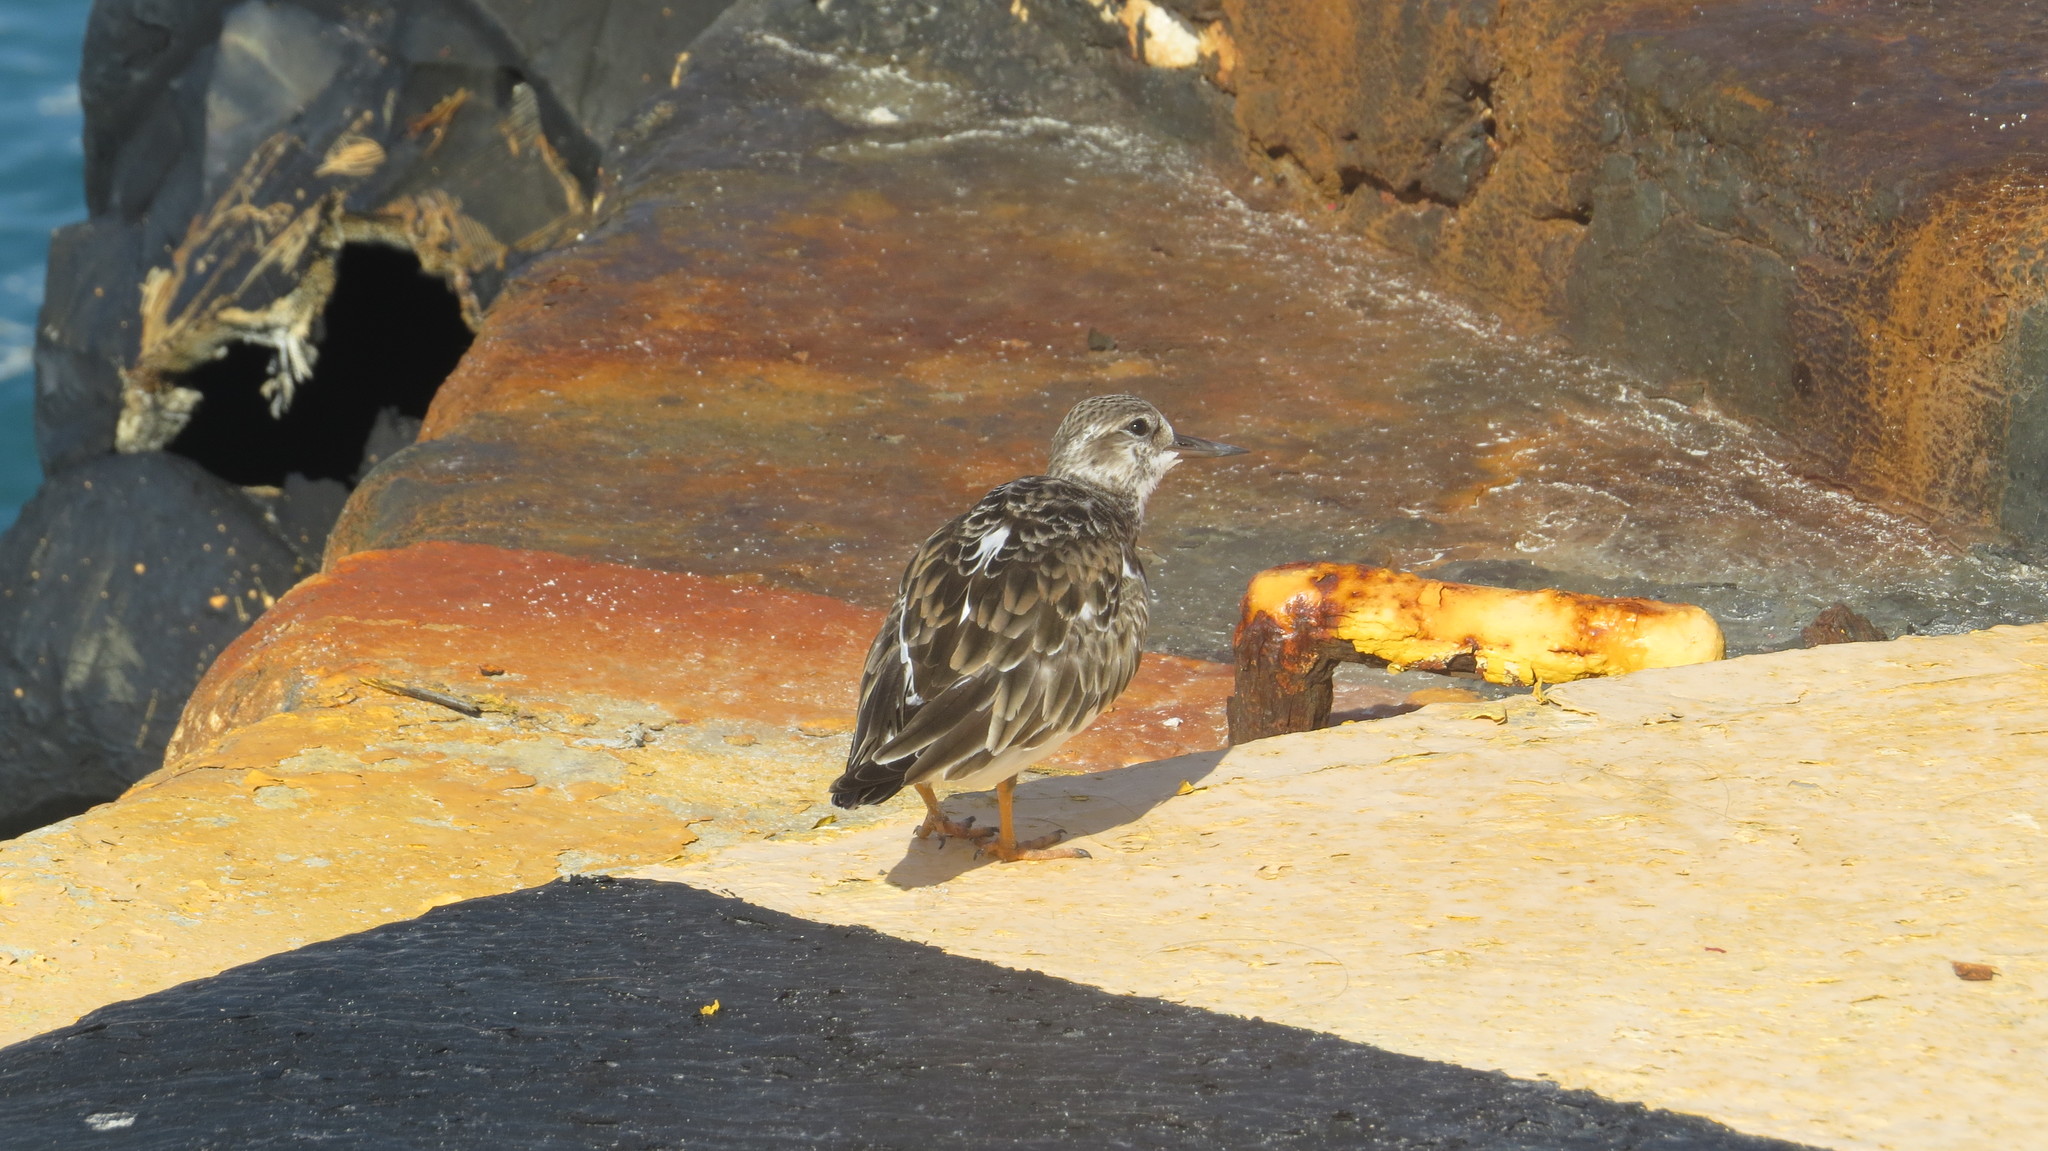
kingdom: Animalia
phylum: Chordata
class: Aves
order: Charadriiformes
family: Scolopacidae
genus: Arenaria
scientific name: Arenaria interpres
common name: Ruddy turnstone
